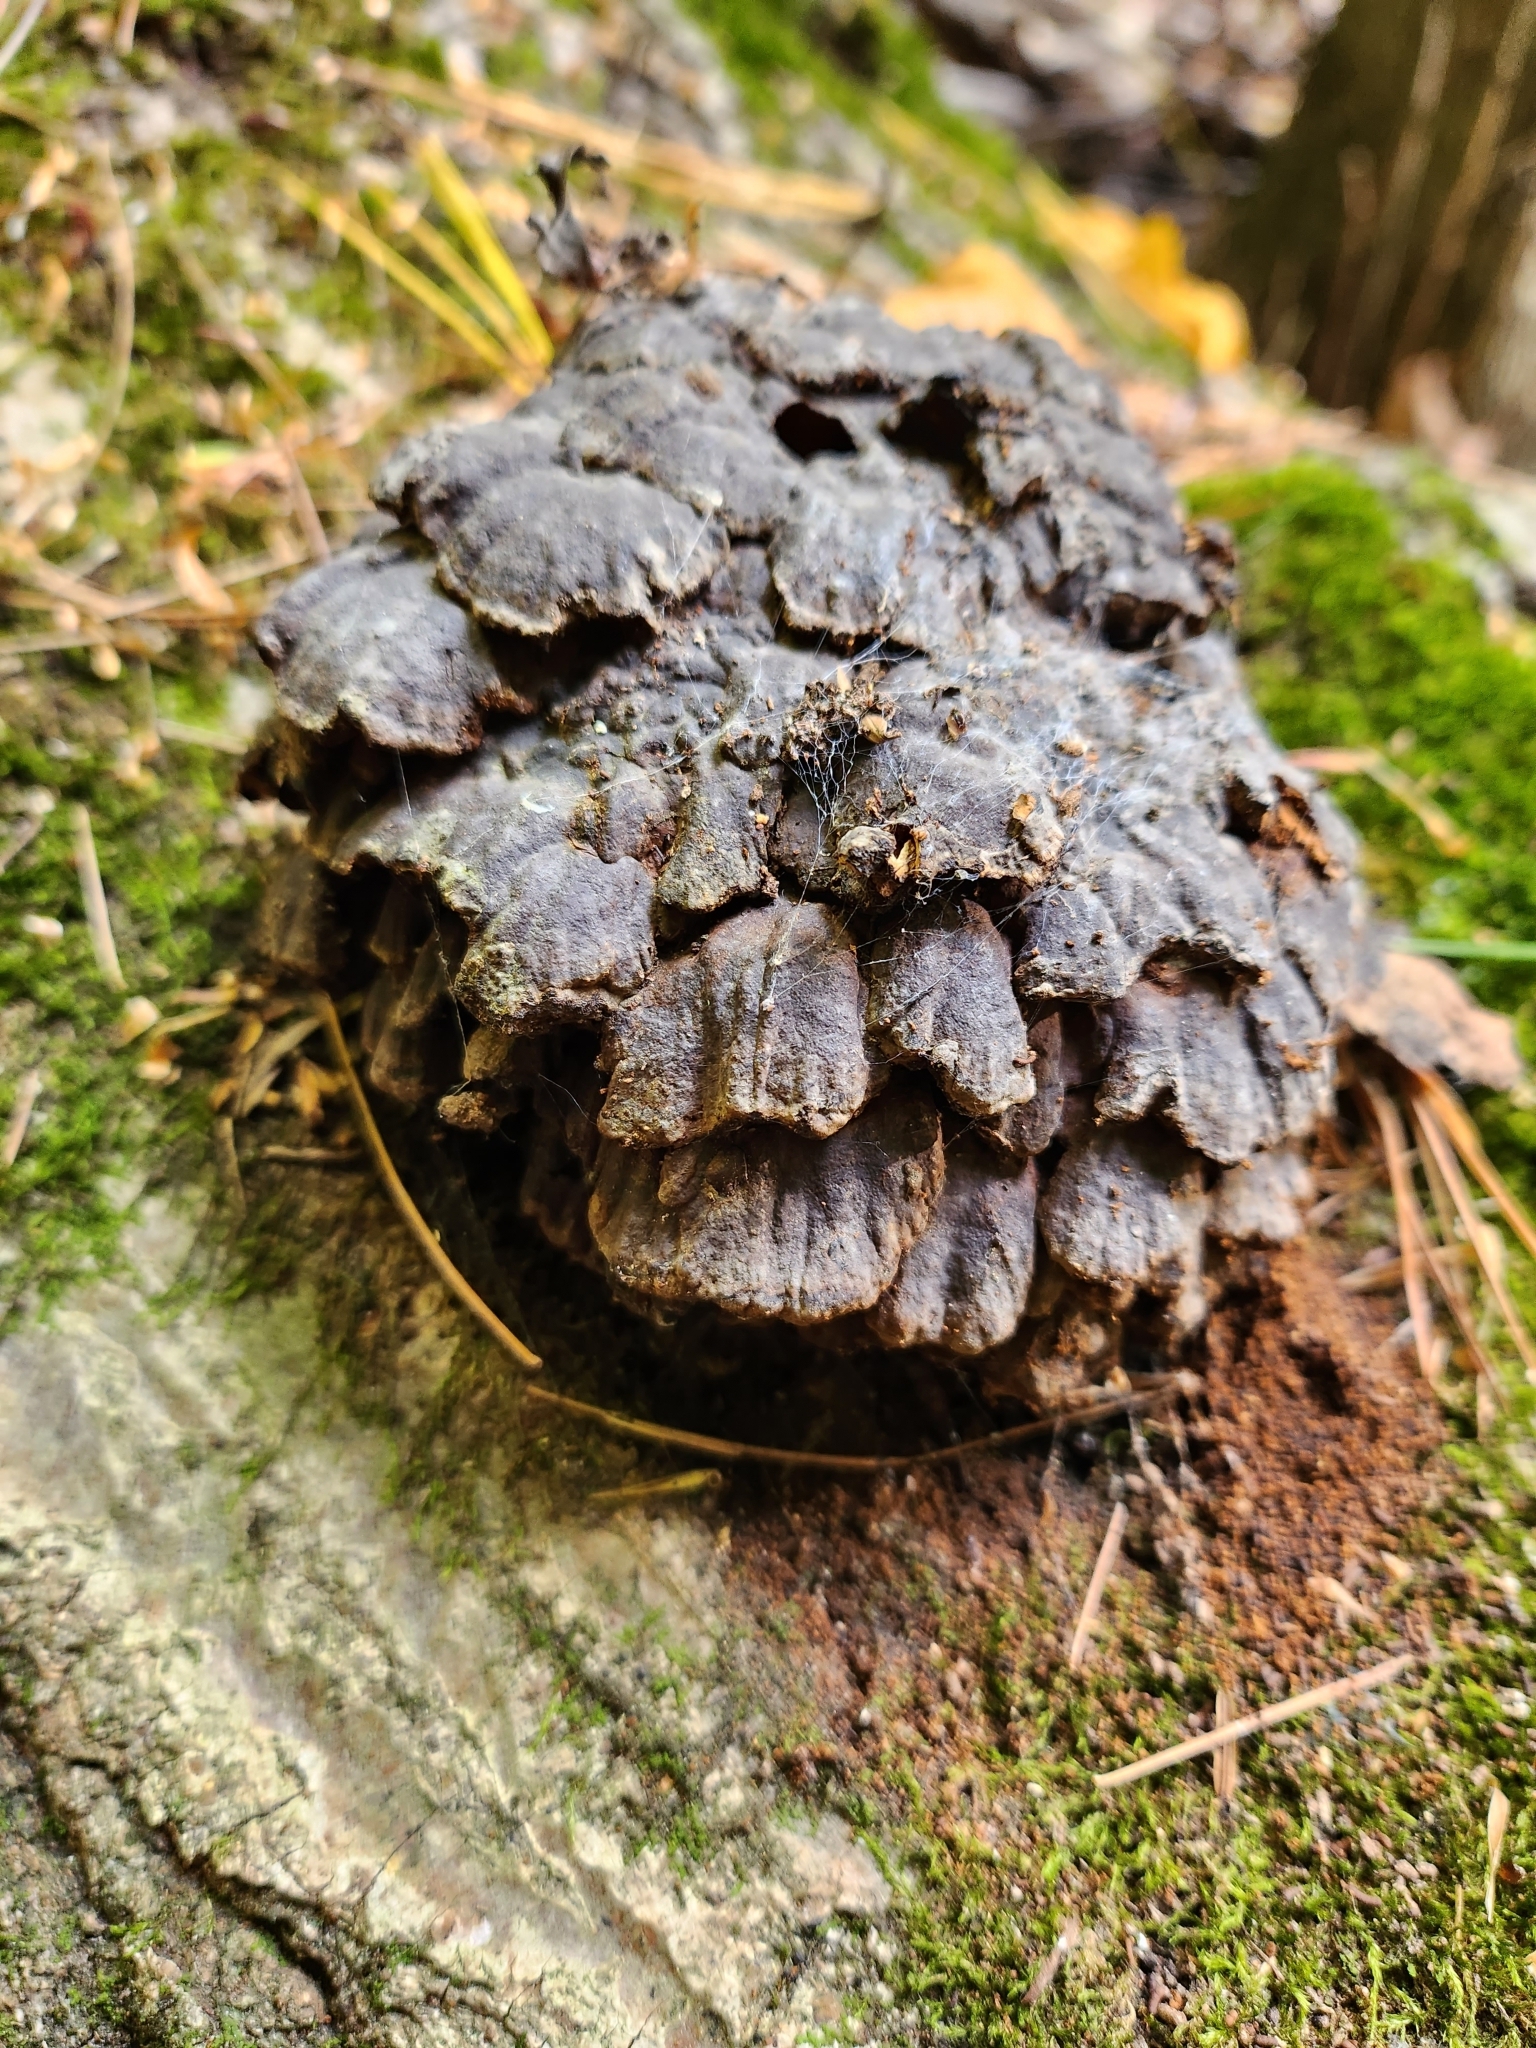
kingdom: Fungi
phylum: Basidiomycota
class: Agaricomycetes
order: Polyporales
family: Polyporaceae
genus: Globifomes
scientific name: Globifomes graveolens
